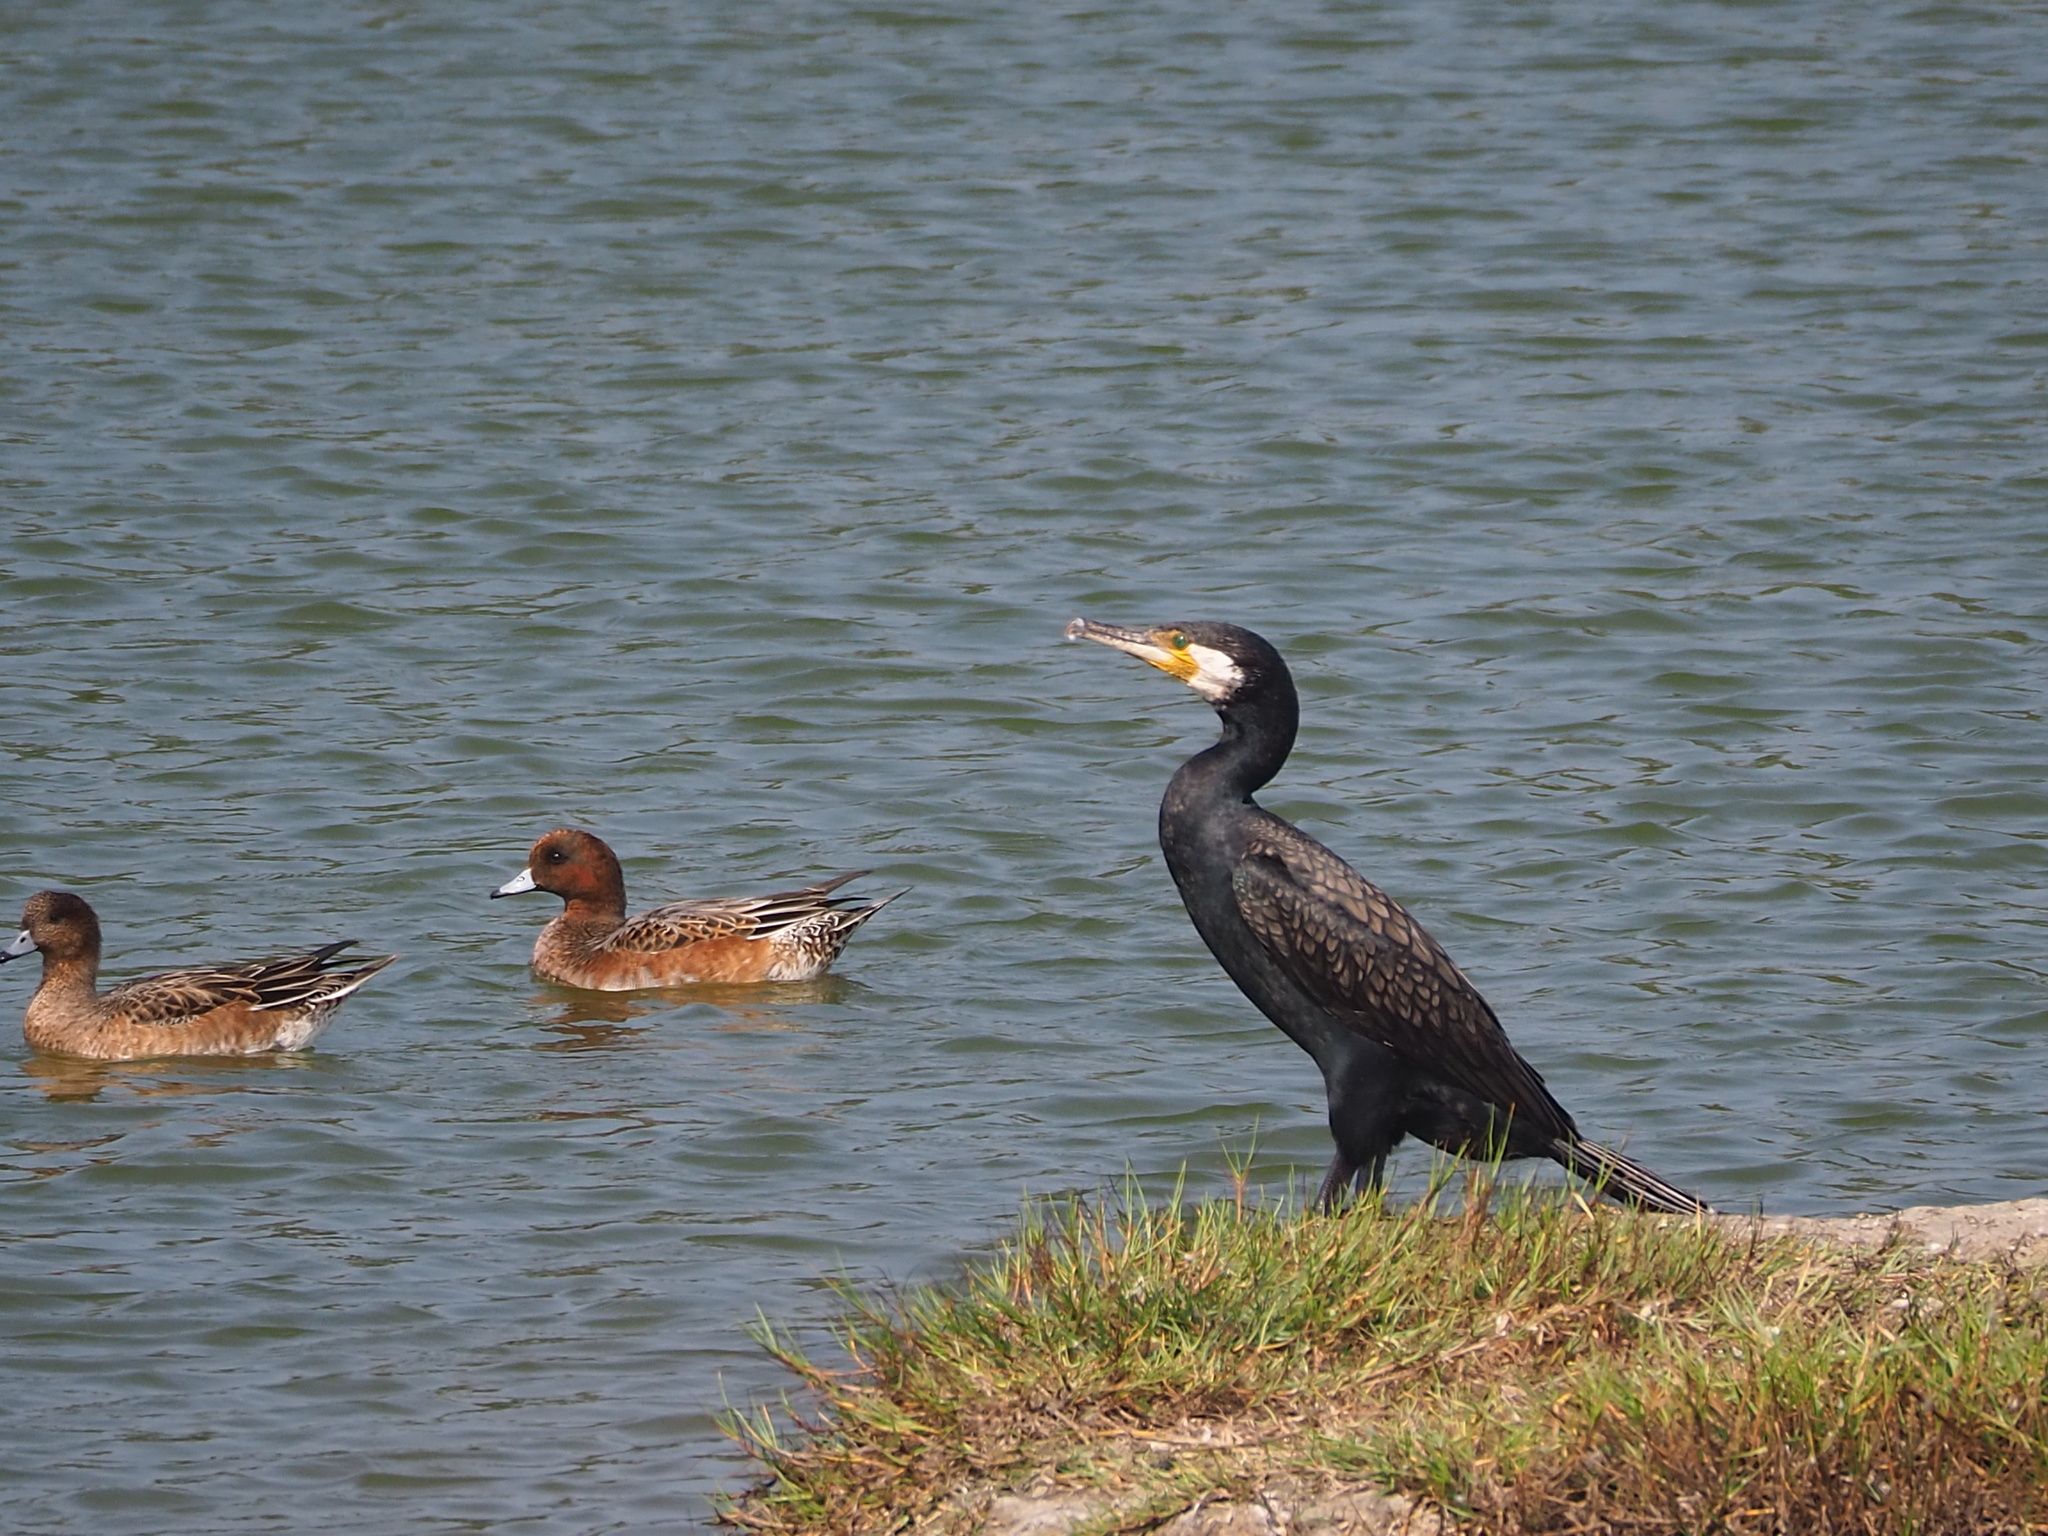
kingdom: Animalia
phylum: Chordata
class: Aves
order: Suliformes
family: Phalacrocoracidae
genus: Phalacrocorax
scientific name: Phalacrocorax carbo
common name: Great cormorant
